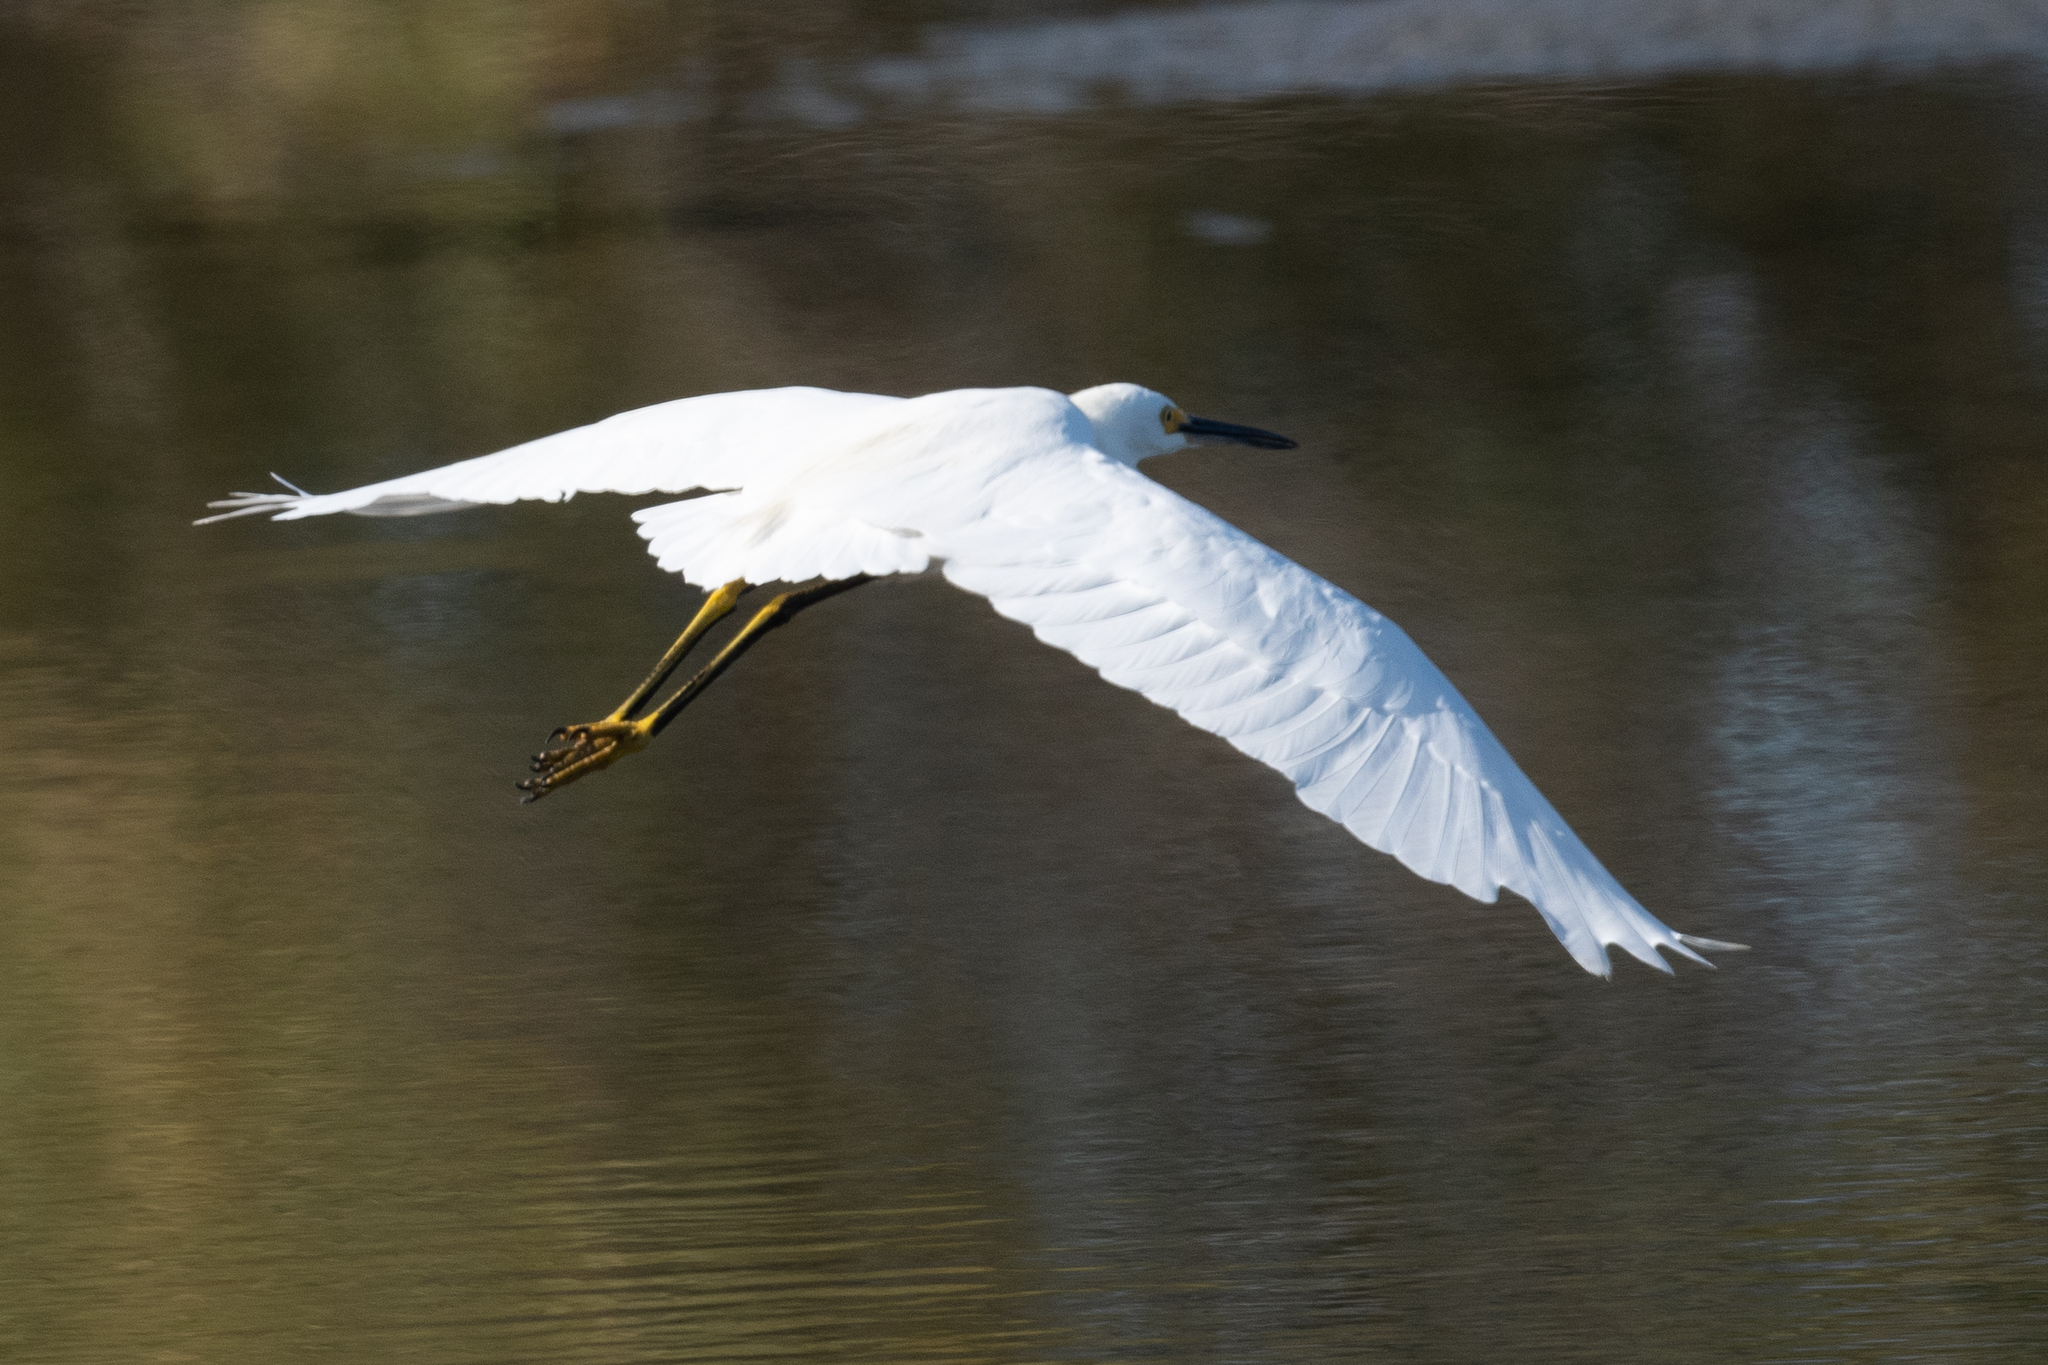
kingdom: Animalia
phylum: Chordata
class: Aves
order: Pelecaniformes
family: Ardeidae
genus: Egretta
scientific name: Egretta thula
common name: Snowy egret
